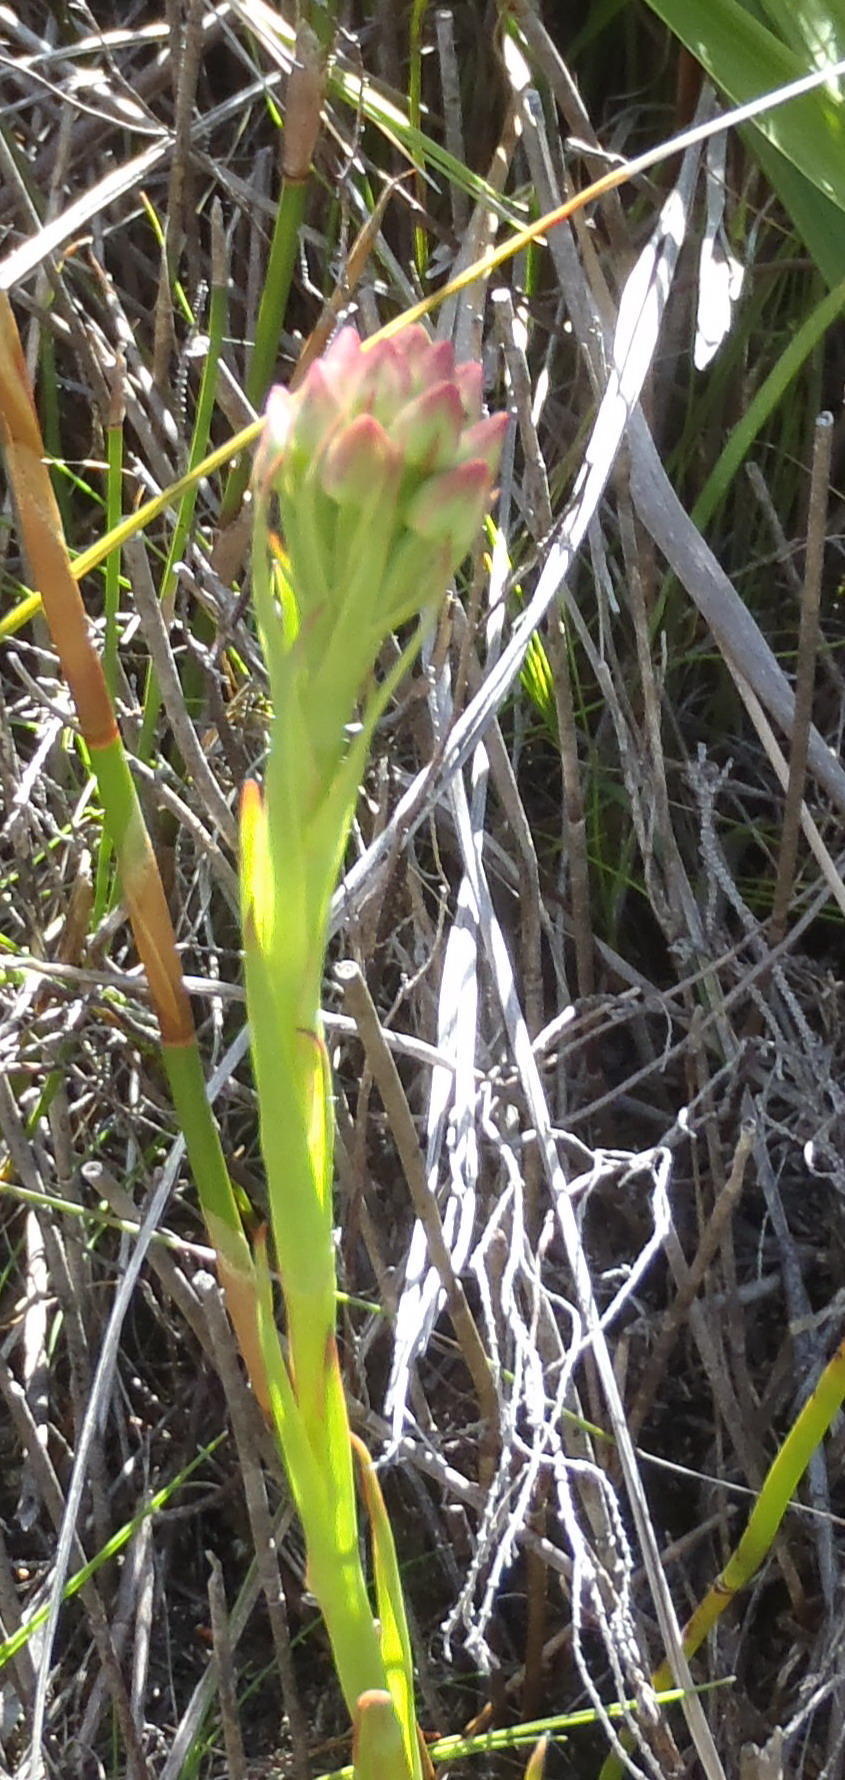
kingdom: Plantae
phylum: Tracheophyta
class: Liliopsida
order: Asparagales
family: Orchidaceae
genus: Ceratandra
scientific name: Ceratandra globosa
